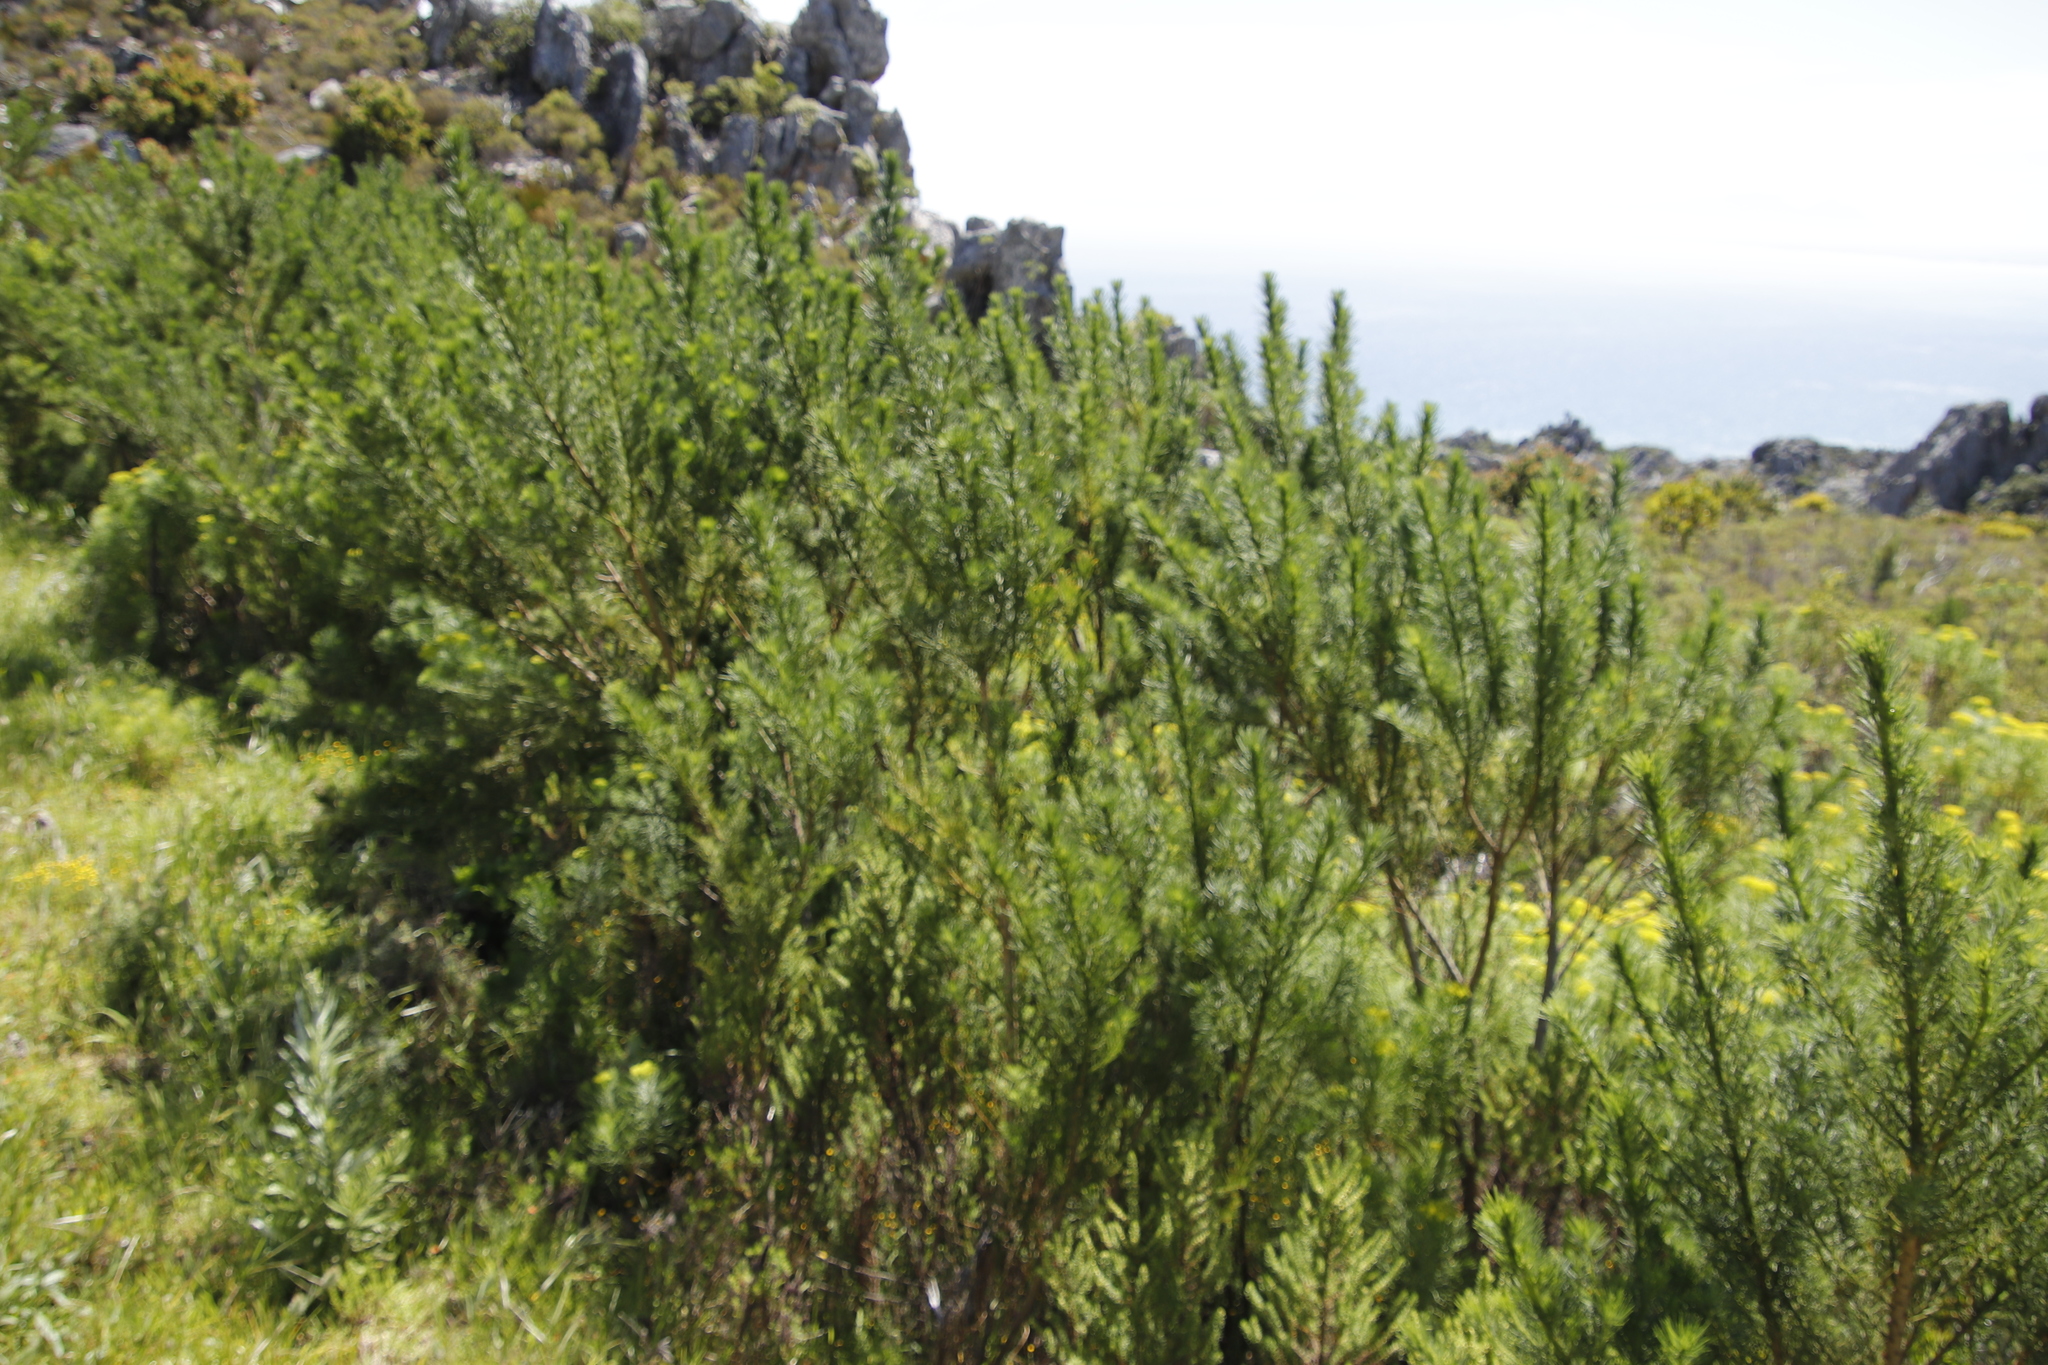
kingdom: Plantae
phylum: Tracheophyta
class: Magnoliopsida
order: Fabales
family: Fabaceae
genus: Psoralea
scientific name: Psoralea ivumba
